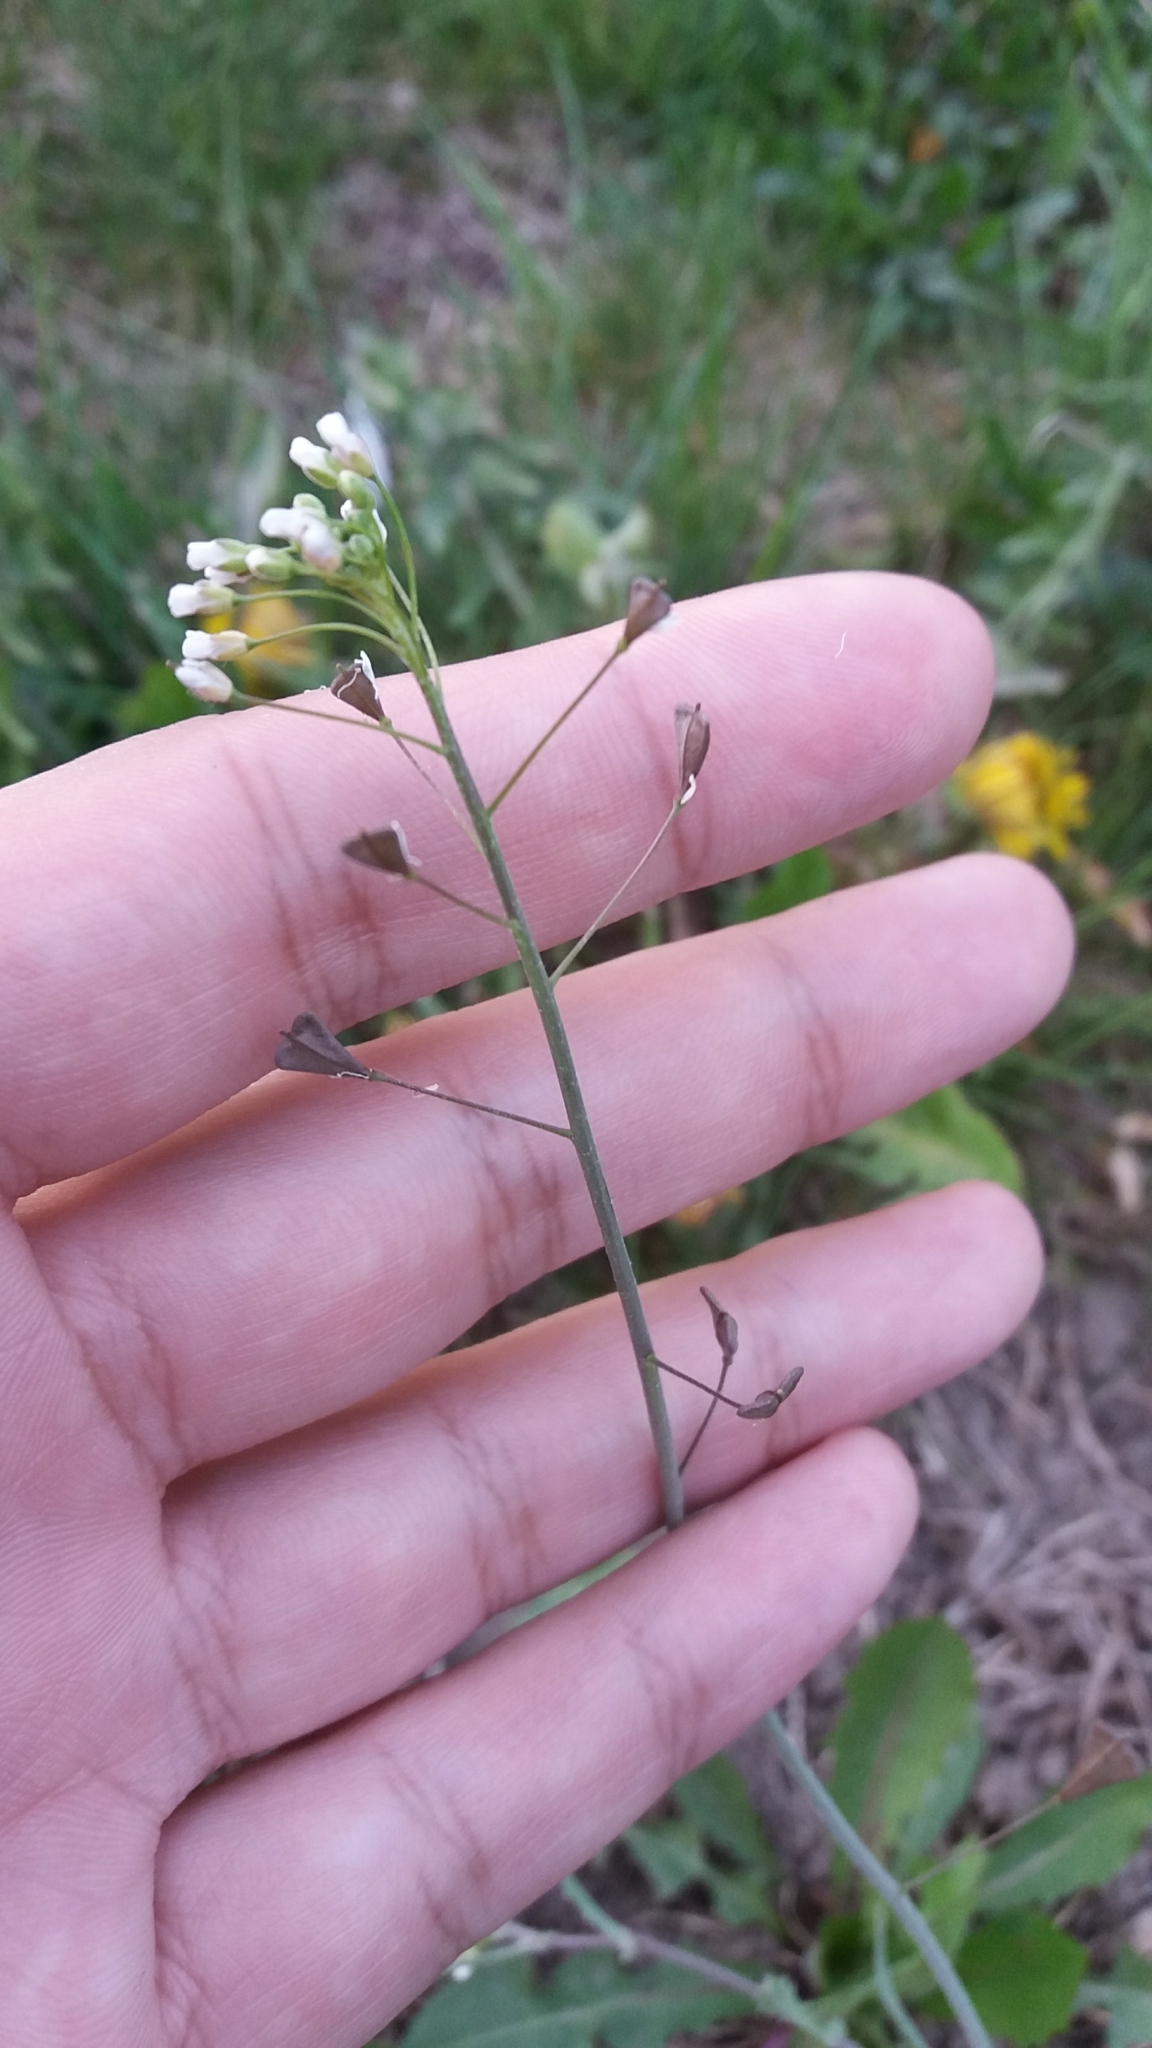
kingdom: Plantae
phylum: Tracheophyta
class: Magnoliopsida
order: Brassicales
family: Brassicaceae
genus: Capsella
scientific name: Capsella bursa-pastoris
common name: Shepherd's purse
